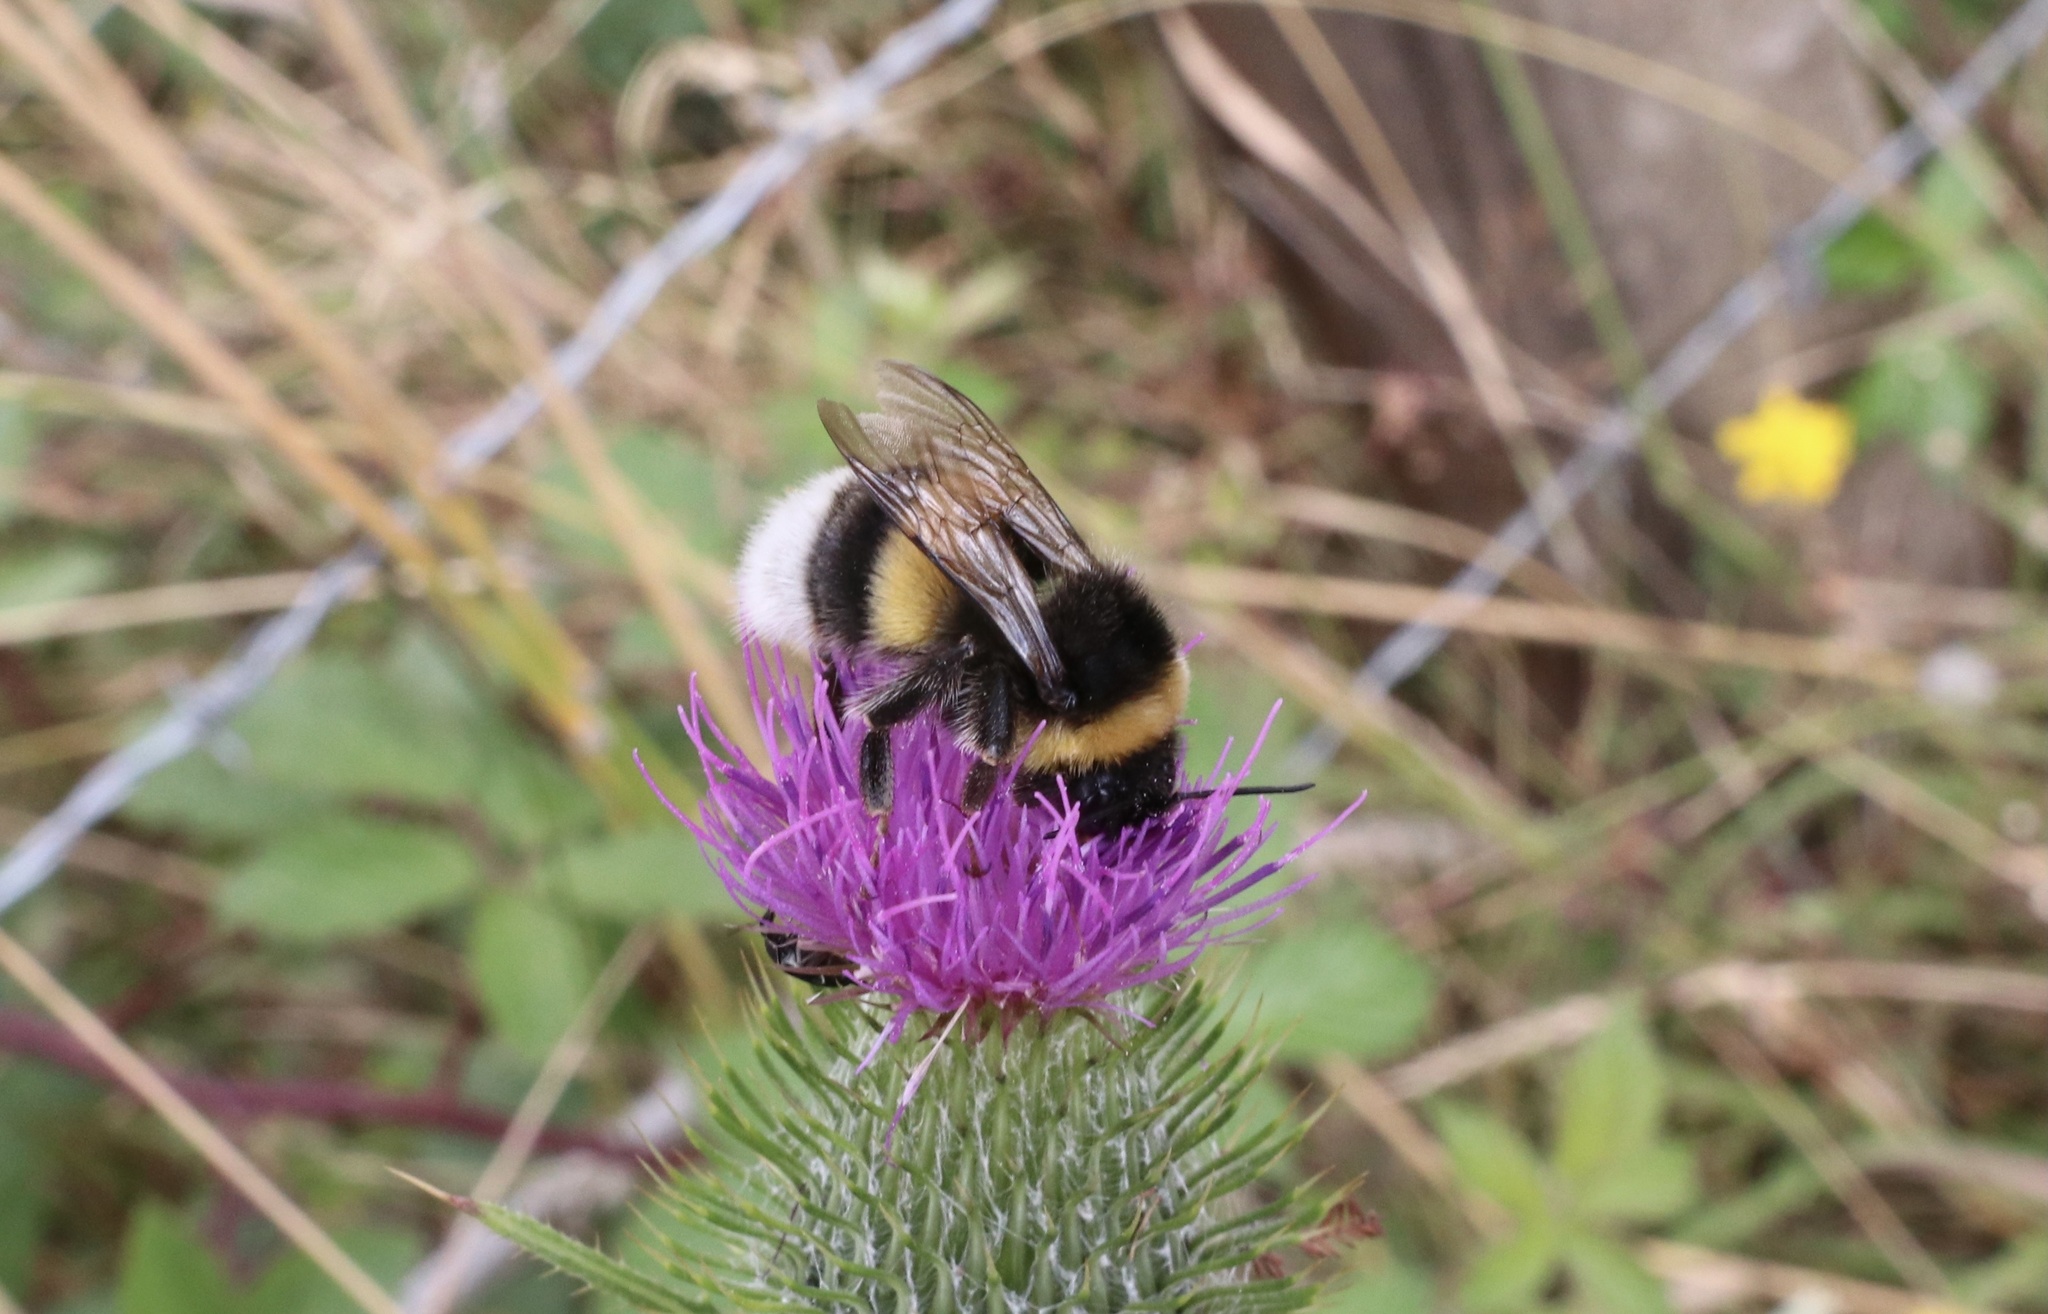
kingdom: Animalia
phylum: Arthropoda
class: Insecta
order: Hymenoptera
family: Apidae
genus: Bombus
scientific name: Bombus terrestris
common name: Buff-tailed bumblebee
